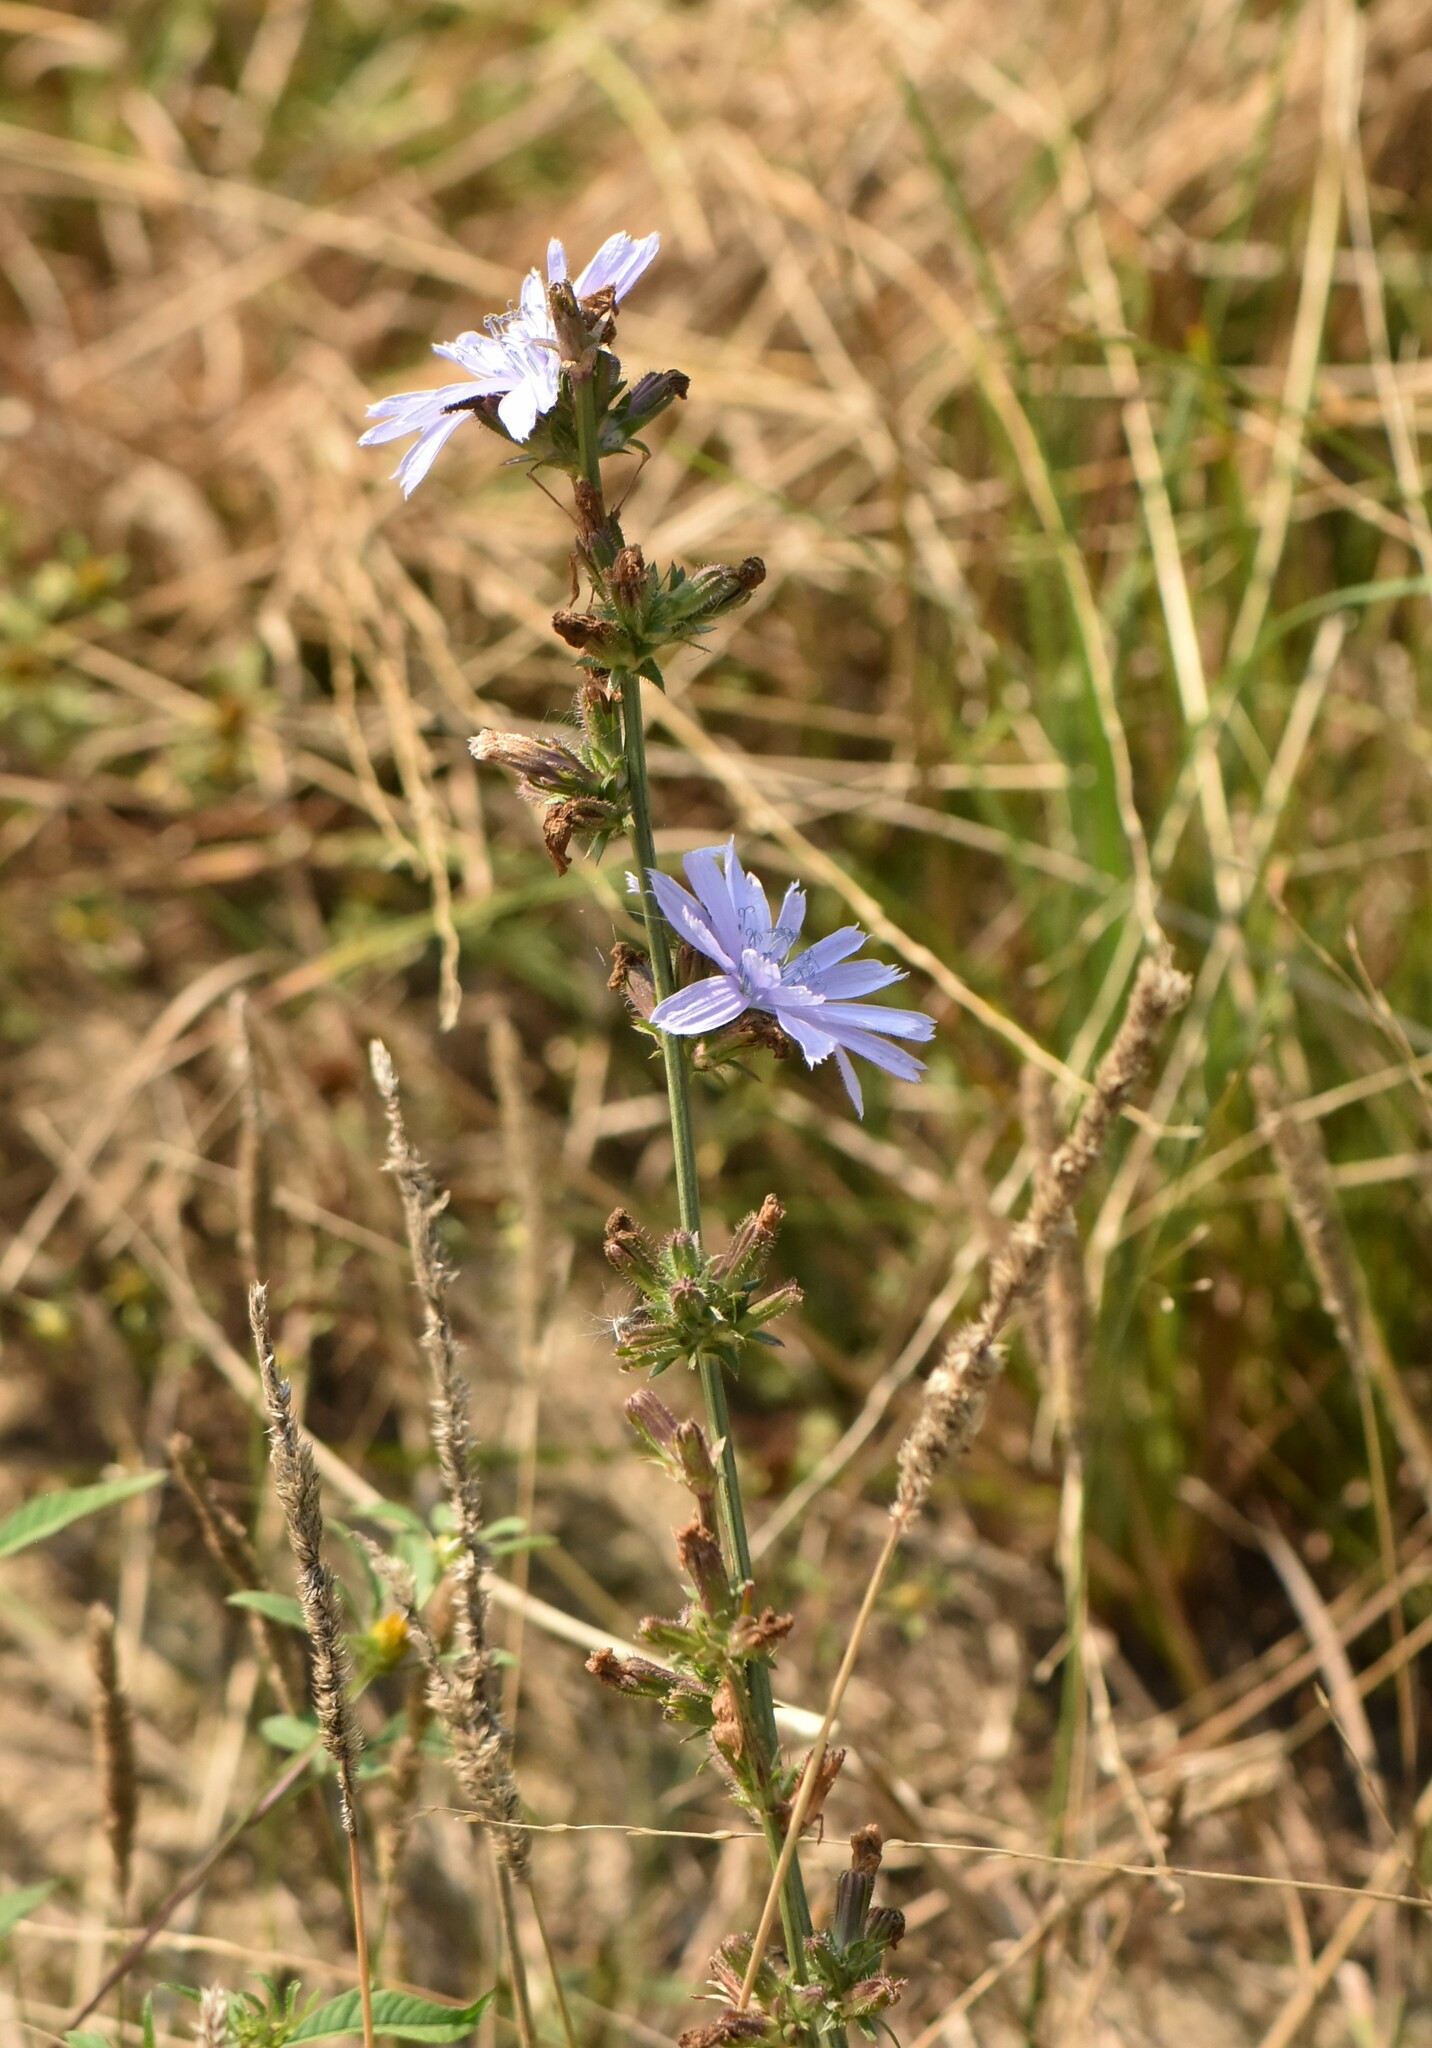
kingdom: Plantae
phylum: Tracheophyta
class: Magnoliopsida
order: Asterales
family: Asteraceae
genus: Cichorium
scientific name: Cichorium intybus
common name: Chicory
